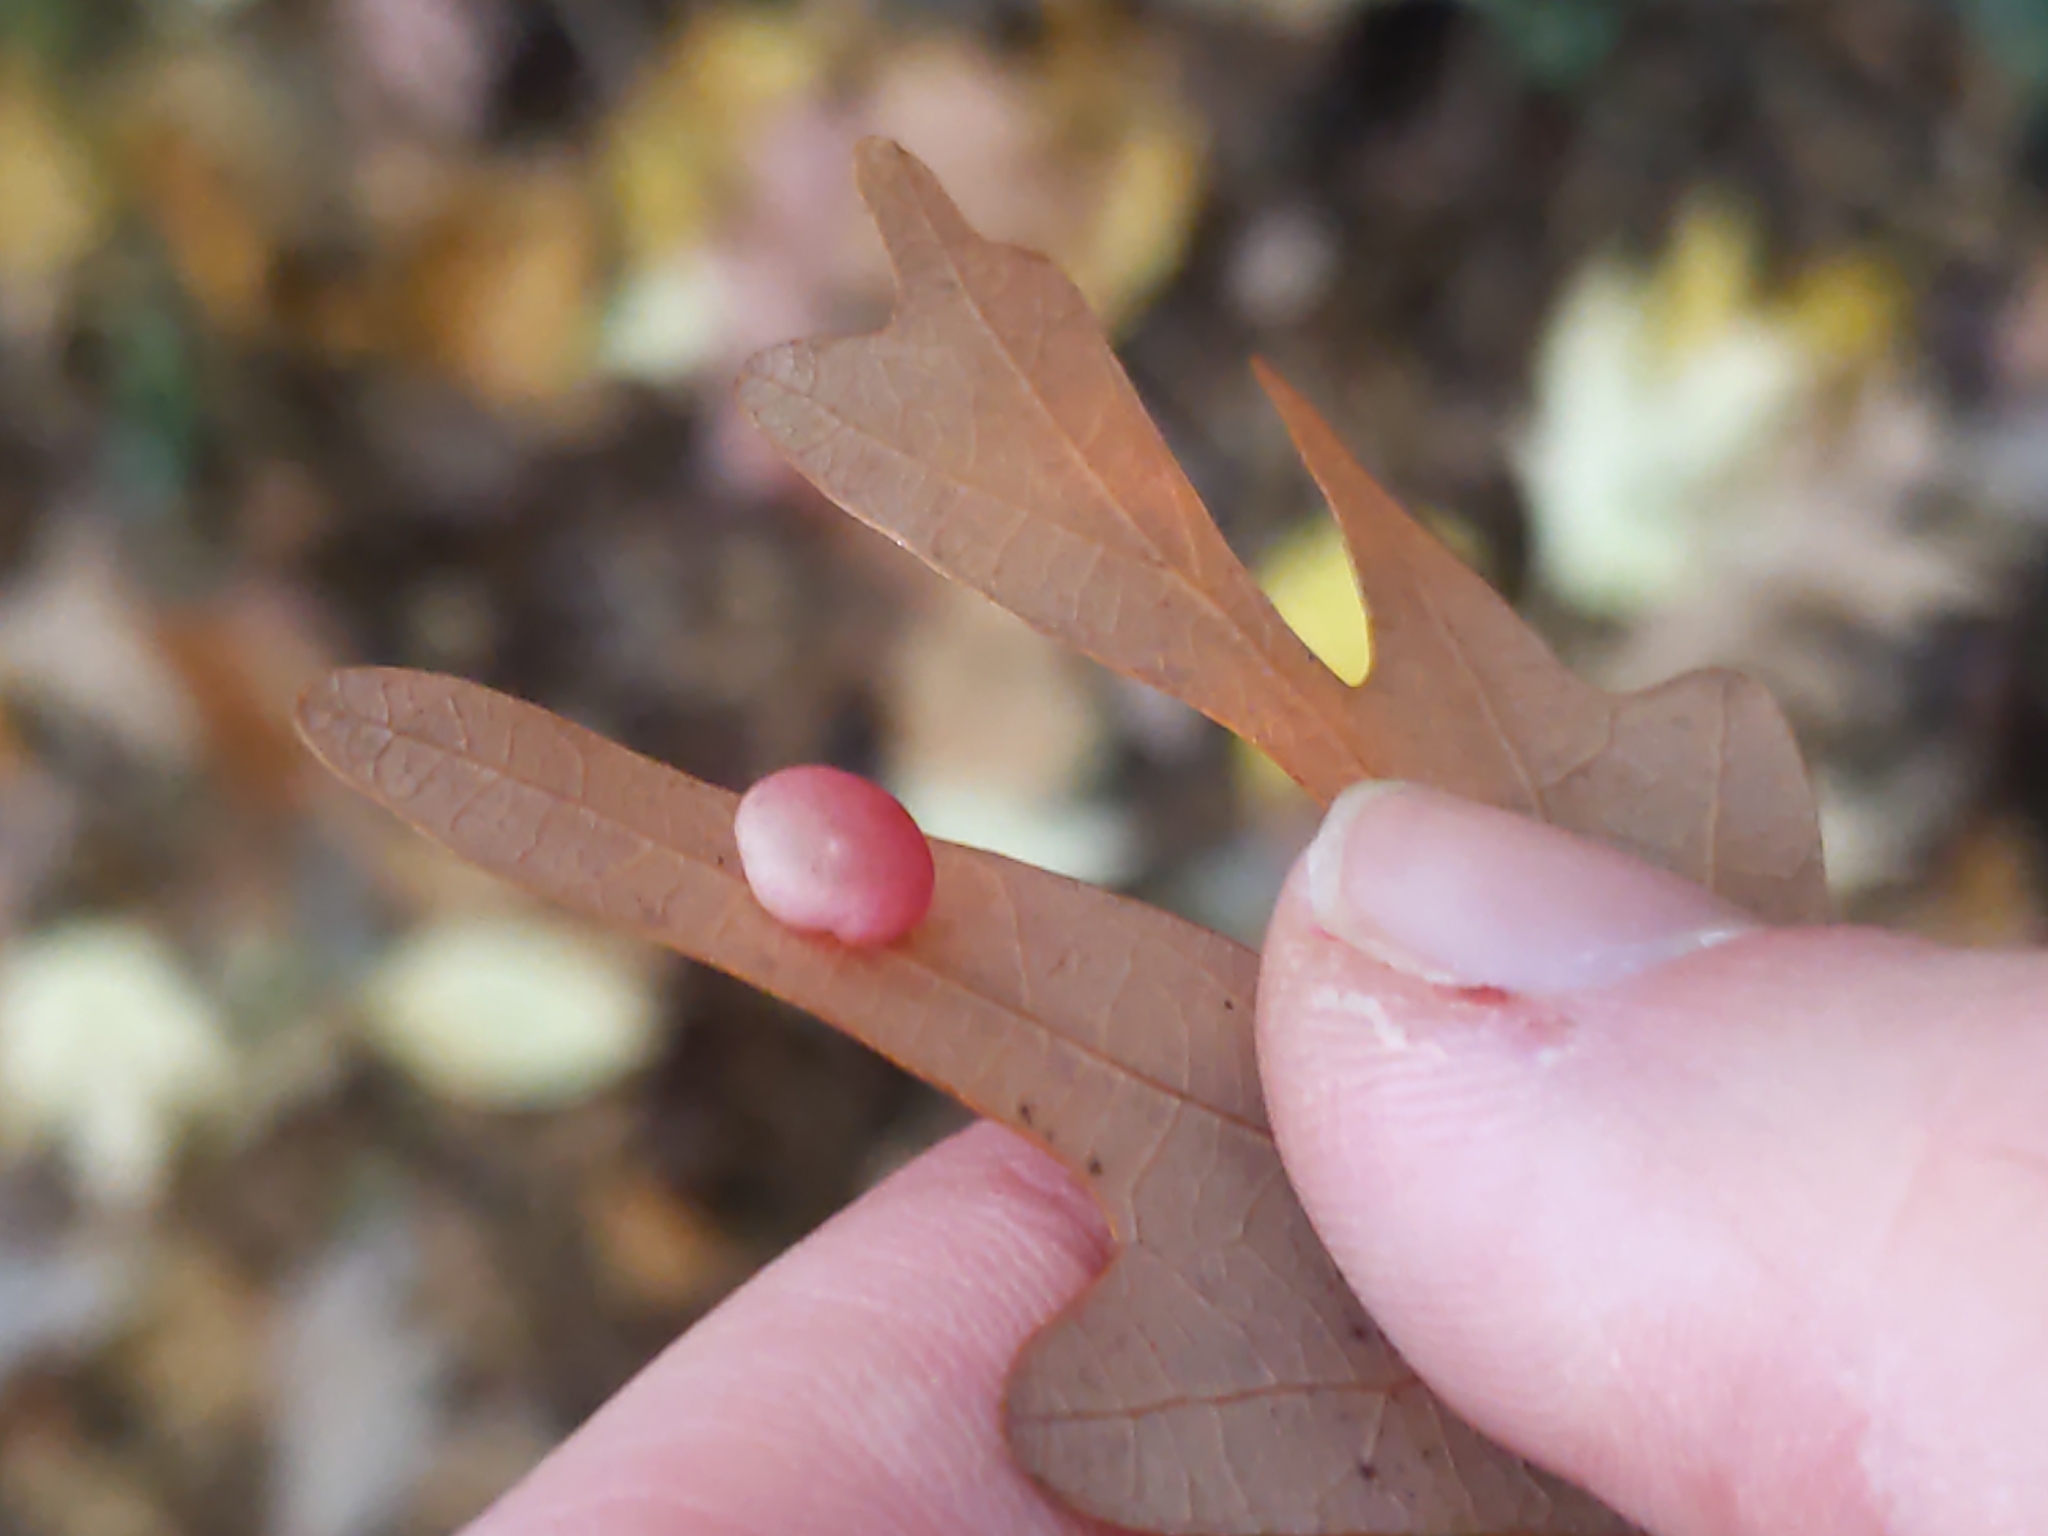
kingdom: Animalia
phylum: Arthropoda
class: Insecta
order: Hymenoptera
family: Cynipidae
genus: Phylloteras
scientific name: Phylloteras
